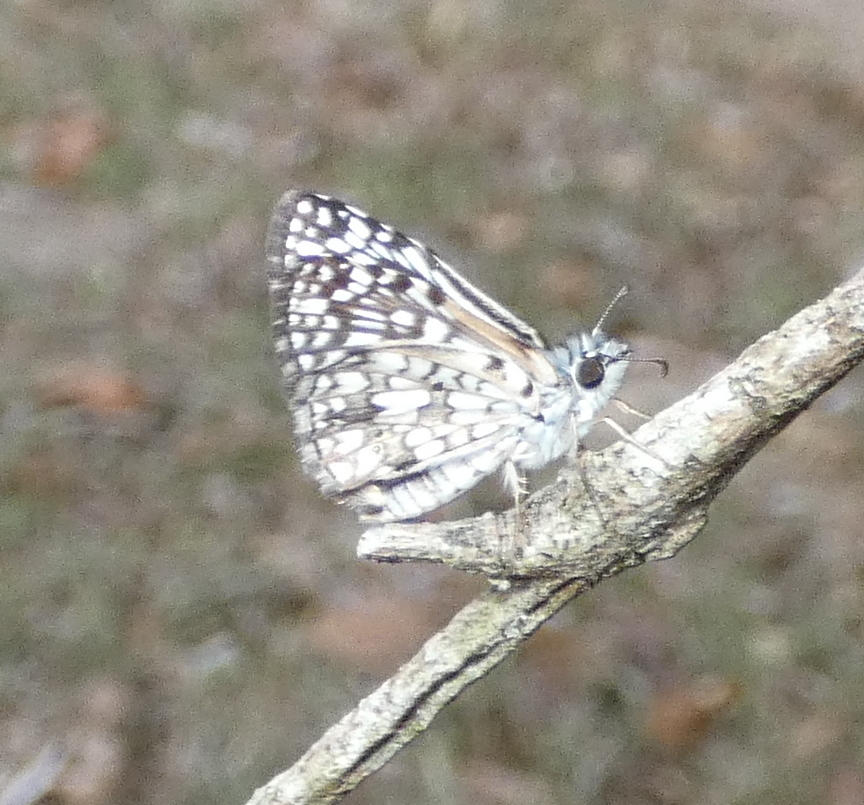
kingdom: Animalia
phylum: Arthropoda
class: Insecta
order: Lepidoptera
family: Hesperiidae
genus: Pyrgus
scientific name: Pyrgus oileus
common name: Tropical checkered-skipper
